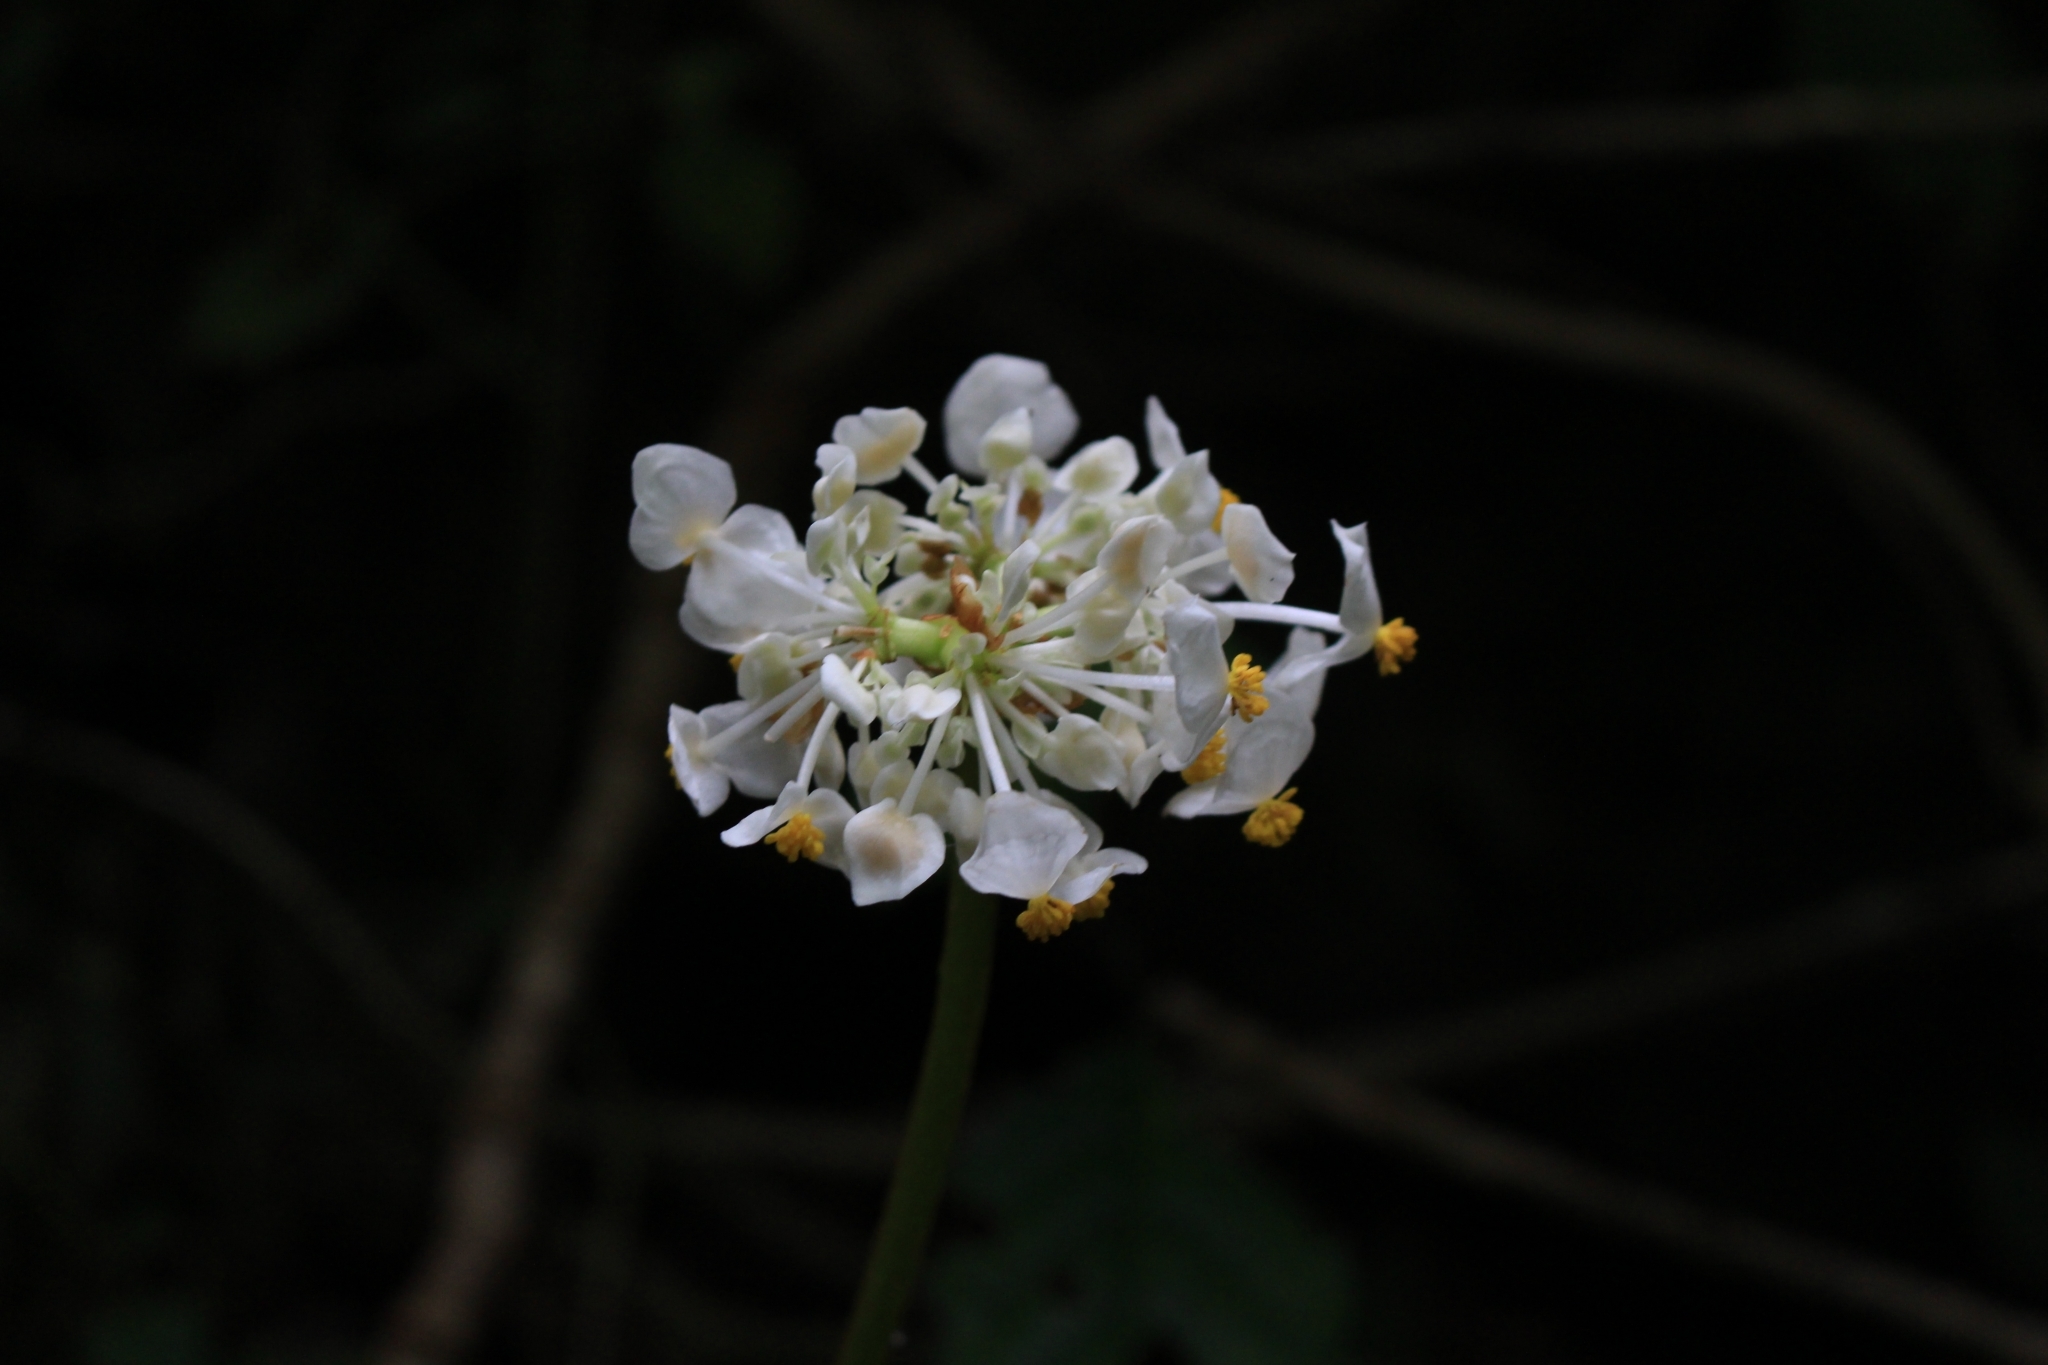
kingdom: Plantae
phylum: Tracheophyta
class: Magnoliopsida
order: Cucurbitales
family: Begoniaceae
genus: Begonia
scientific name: Begonia involucrata
